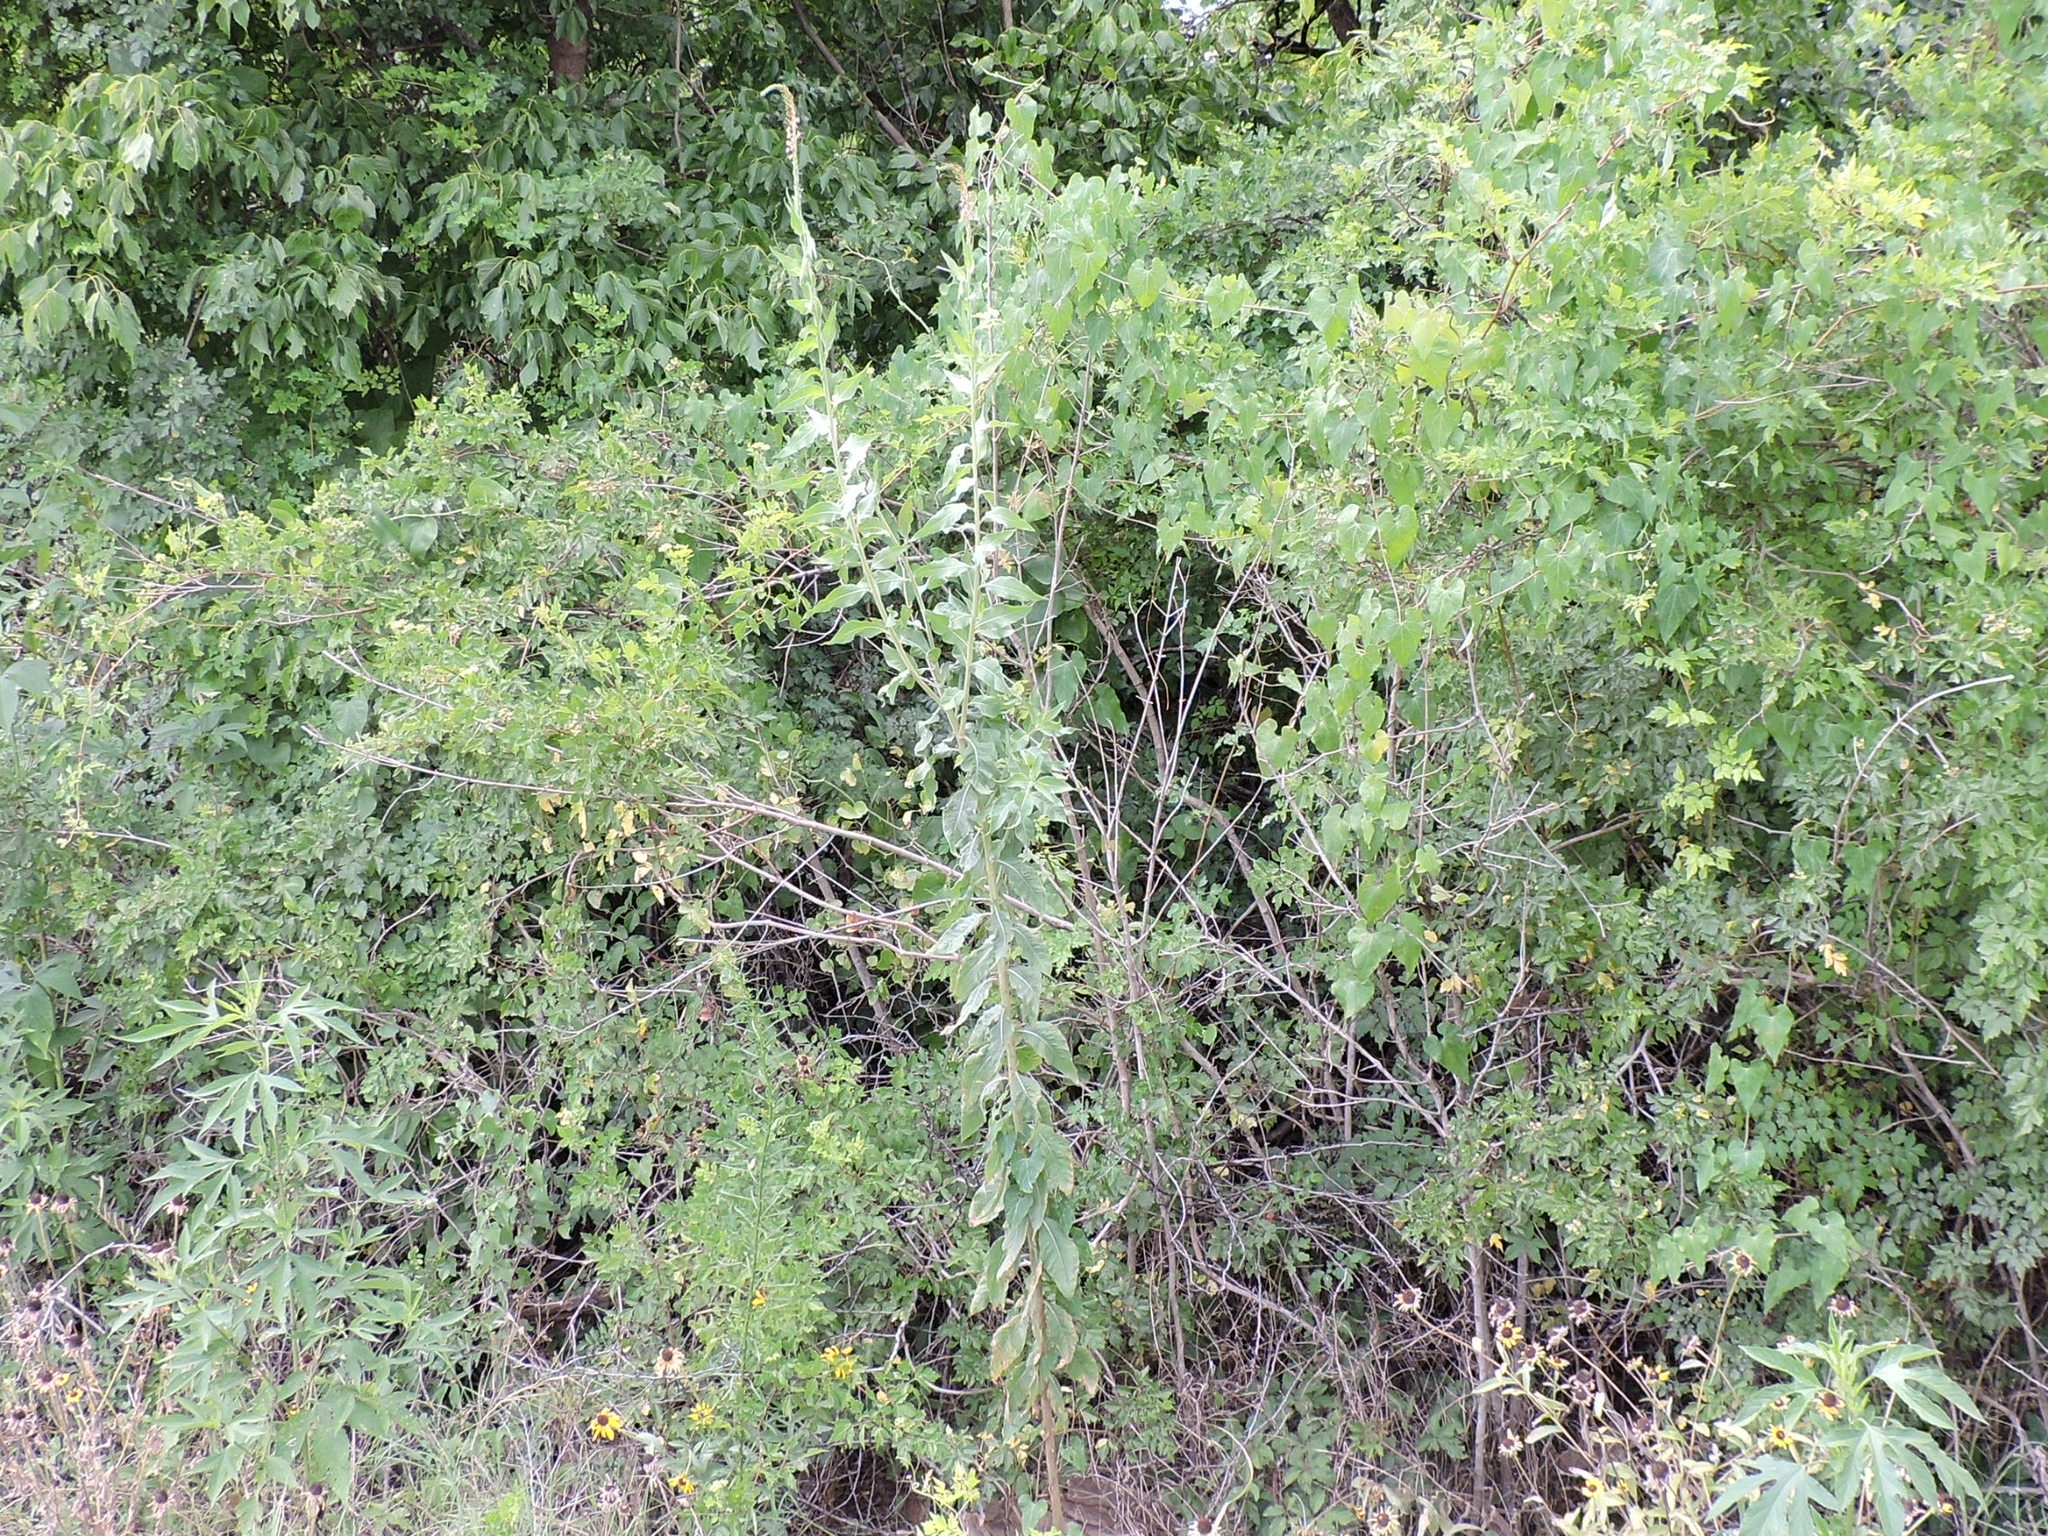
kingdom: Plantae
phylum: Tracheophyta
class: Magnoliopsida
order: Myrtales
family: Onagraceae
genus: Oenothera
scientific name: Oenothera curtiflora
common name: Velvetweed
